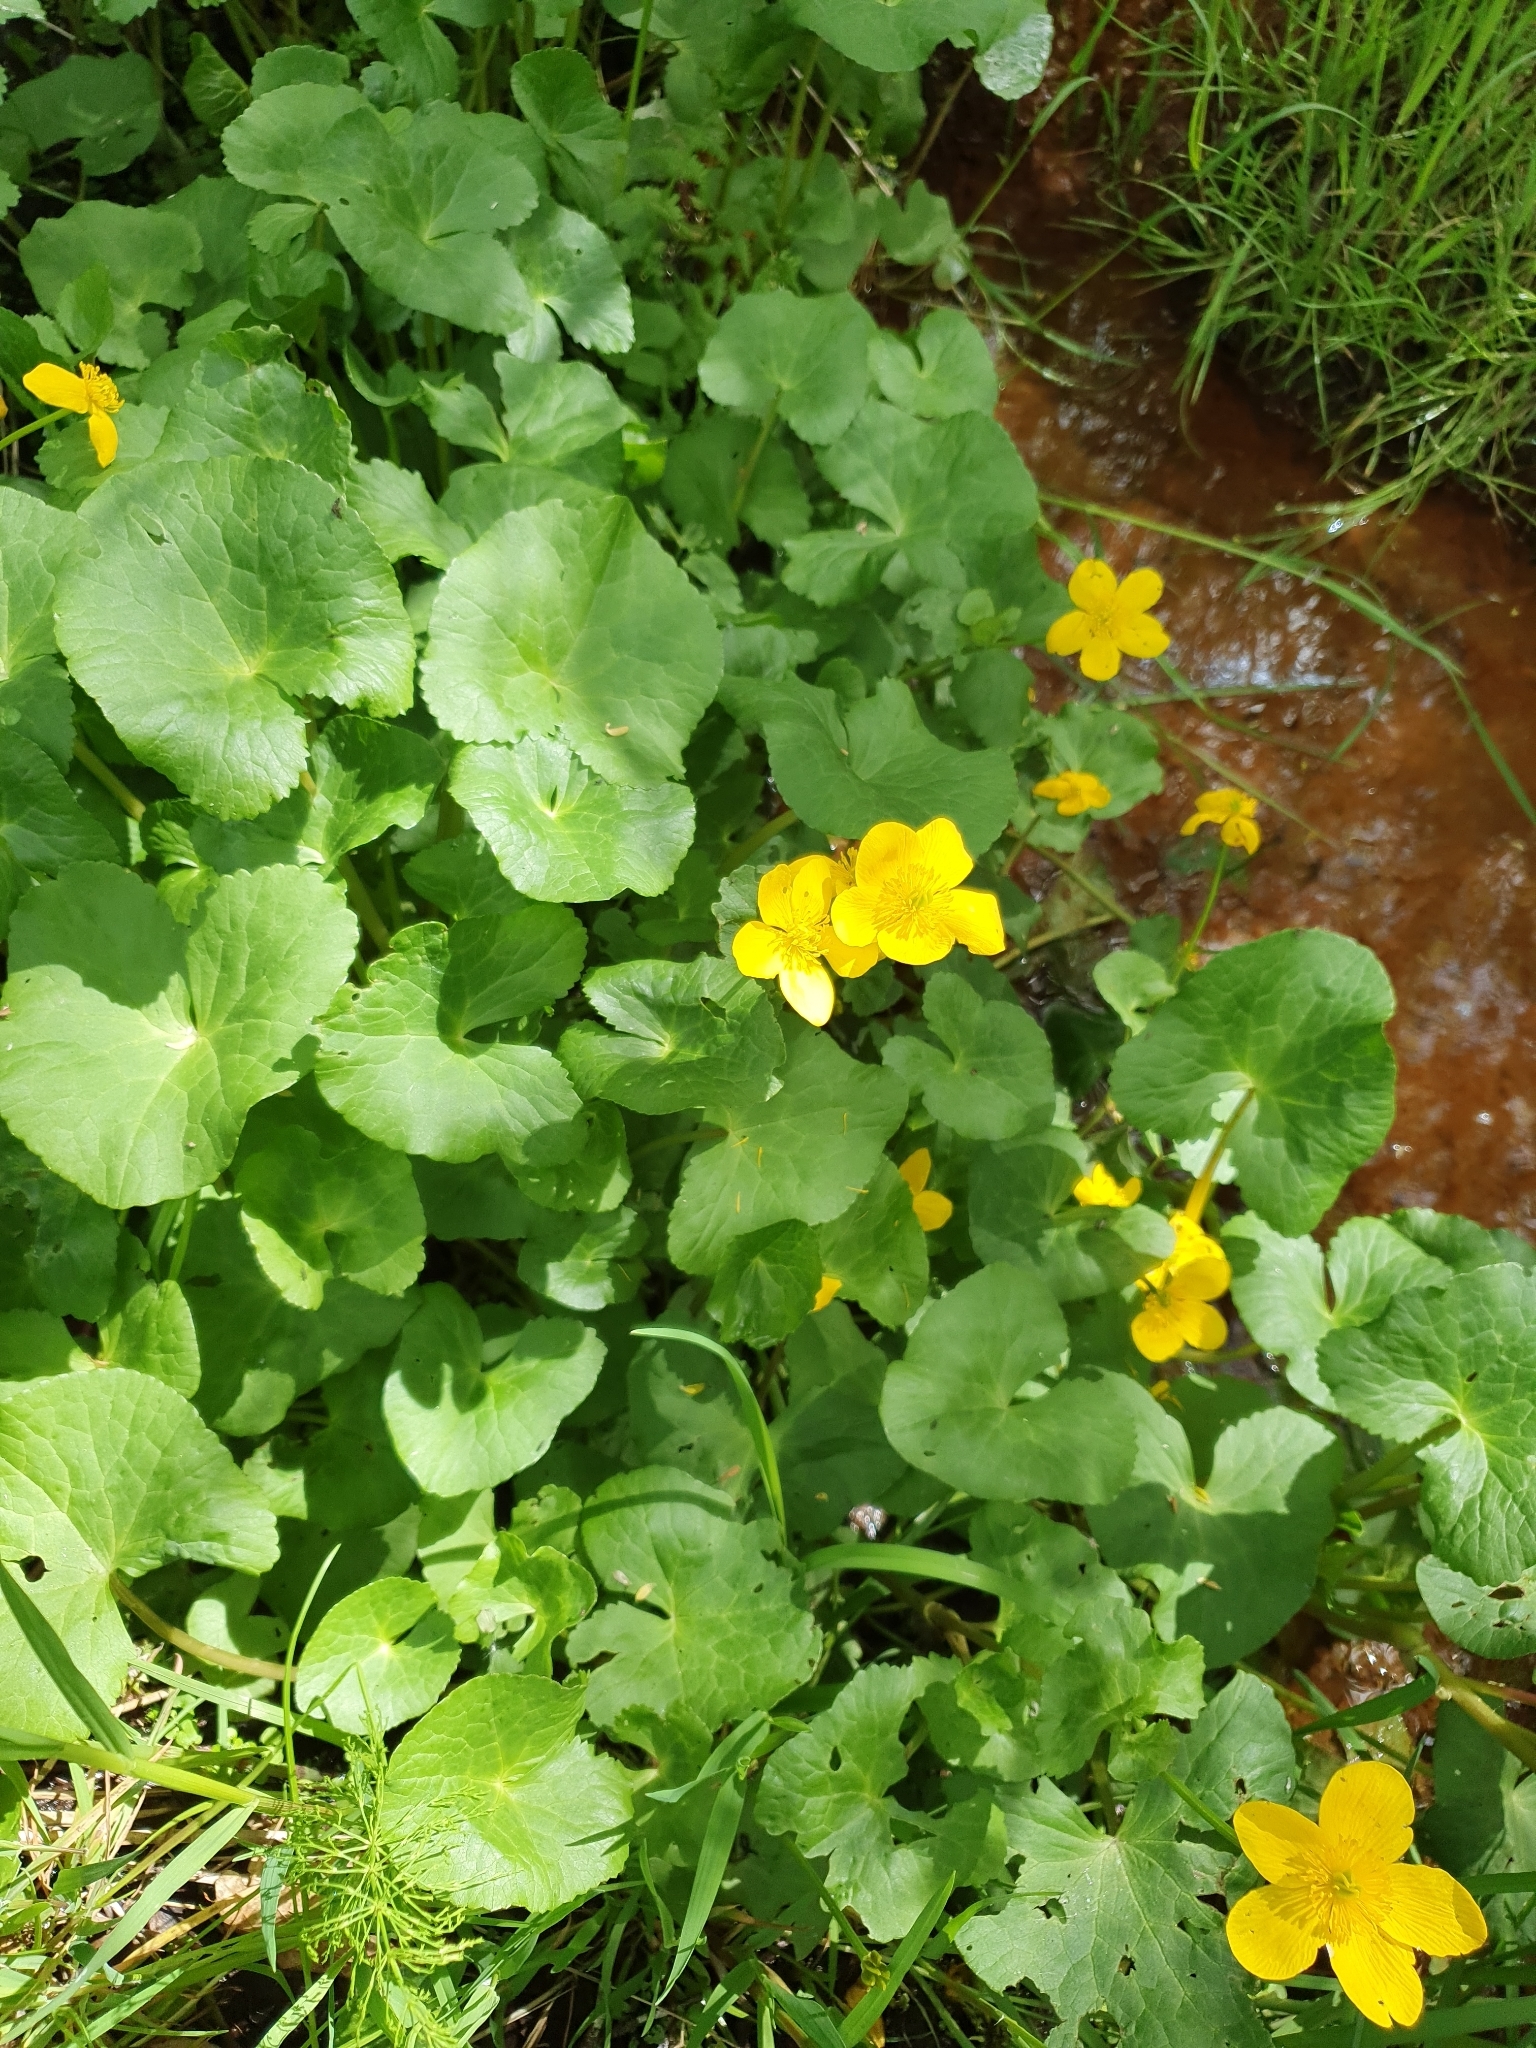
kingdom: Plantae
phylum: Tracheophyta
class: Magnoliopsida
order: Ranunculales
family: Ranunculaceae
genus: Caltha
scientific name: Caltha palustris
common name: Marsh marigold
